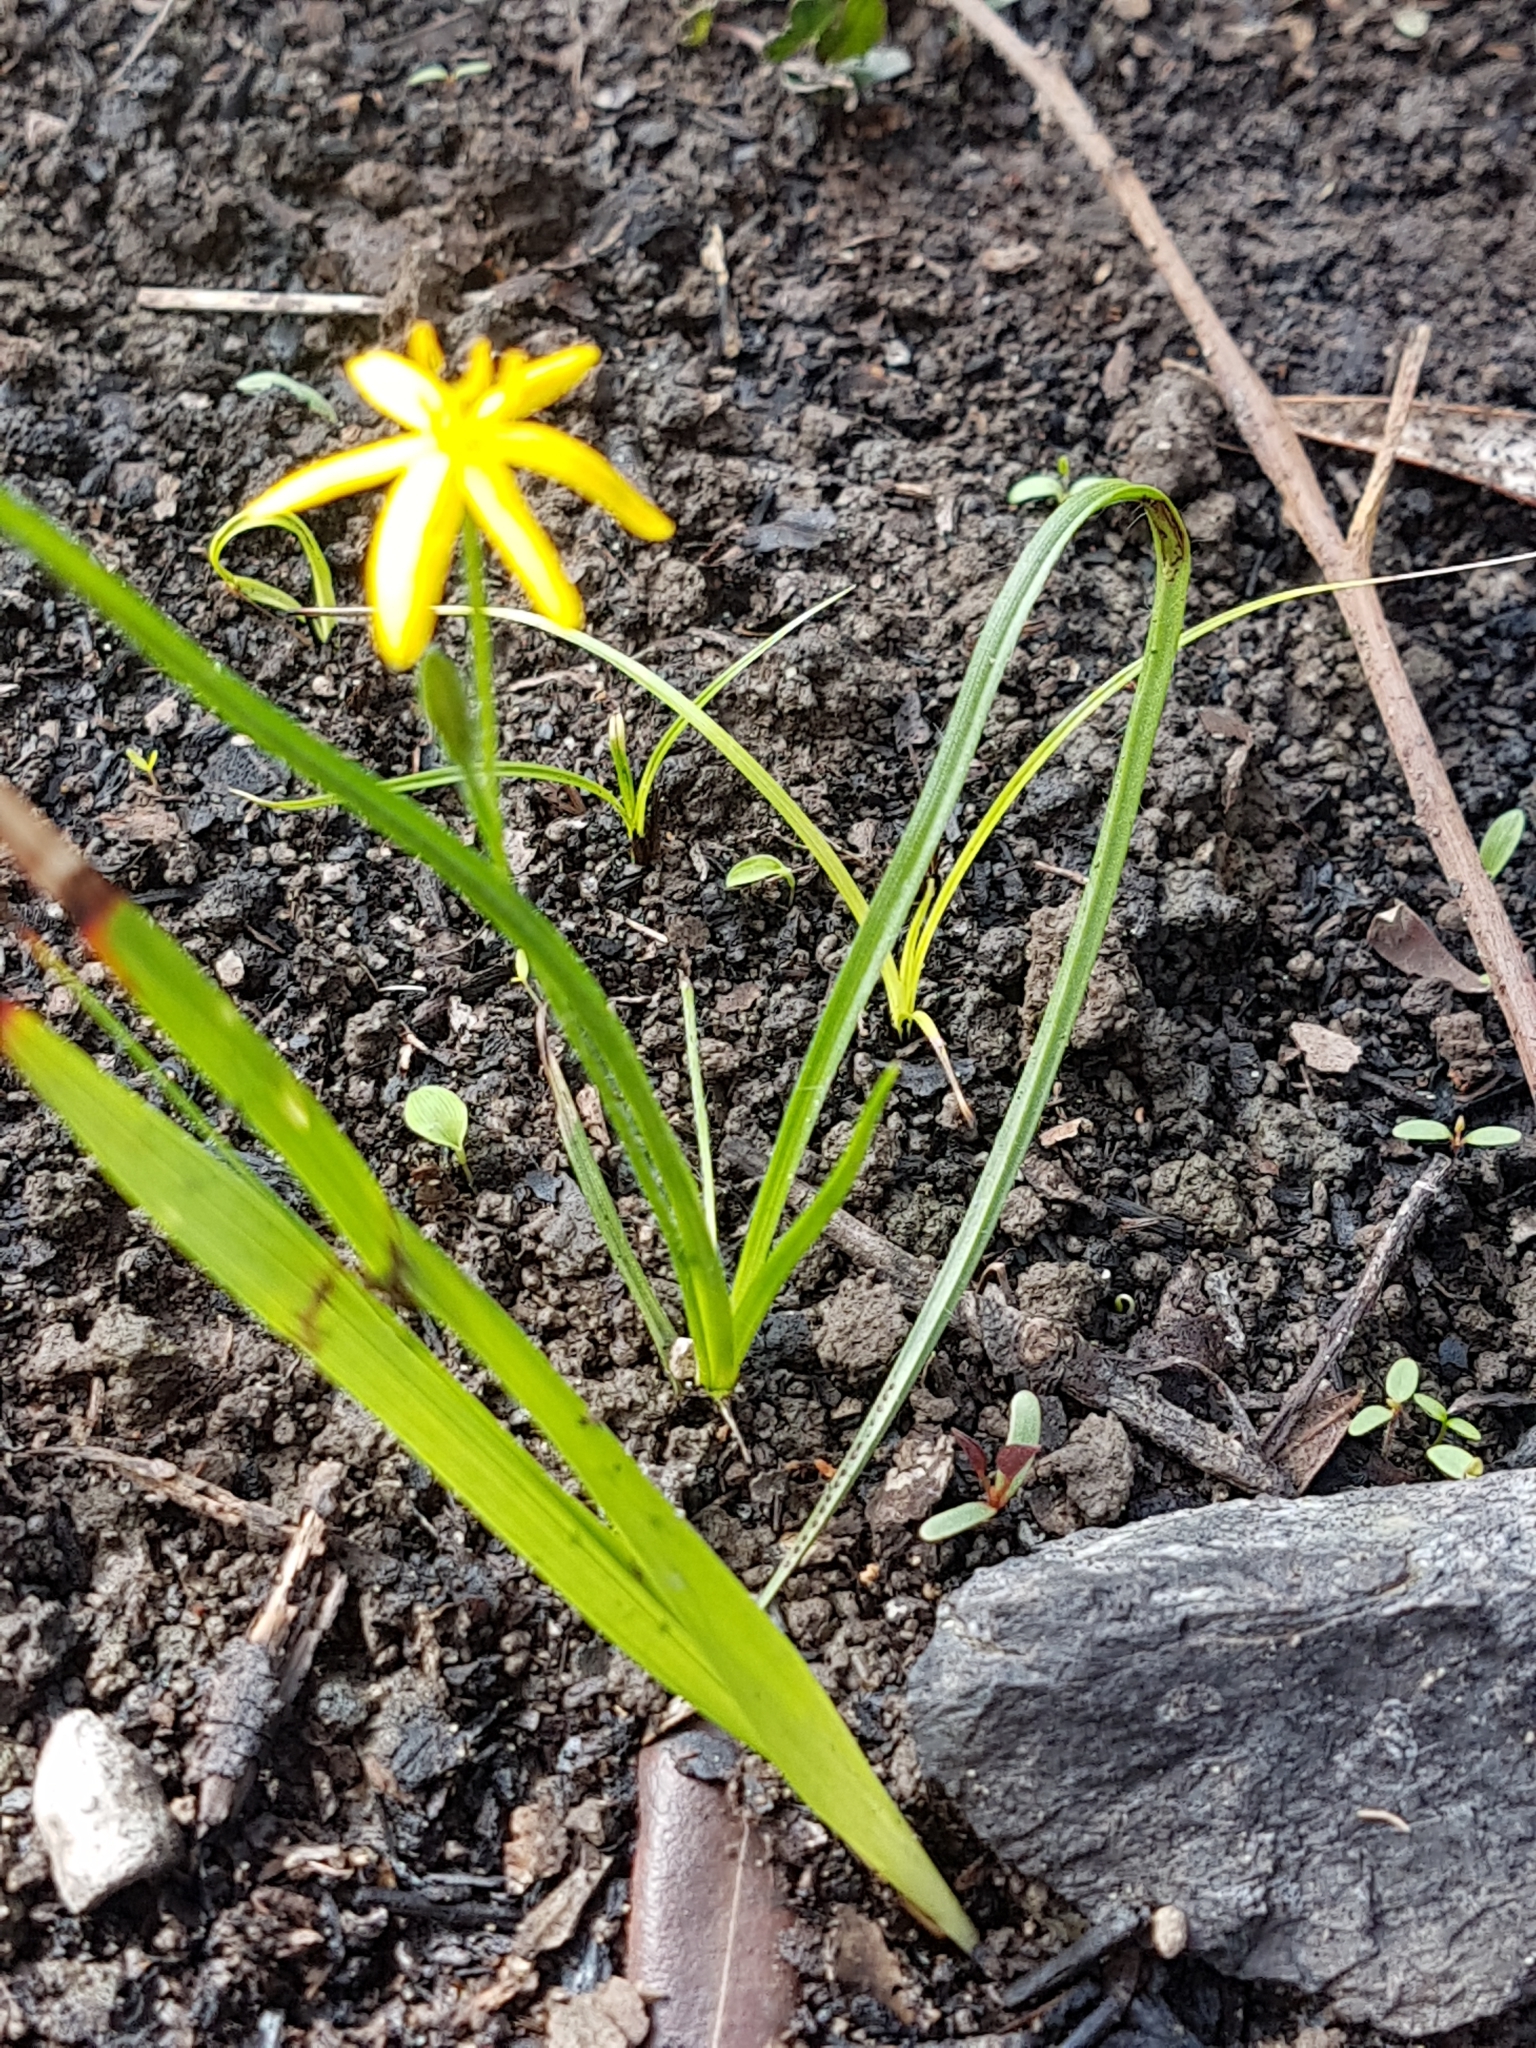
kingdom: Plantae
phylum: Tracheophyta
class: Liliopsida
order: Asparagales
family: Hypoxidaceae
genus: Hypoxis
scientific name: Hypoxis hygrometrica
